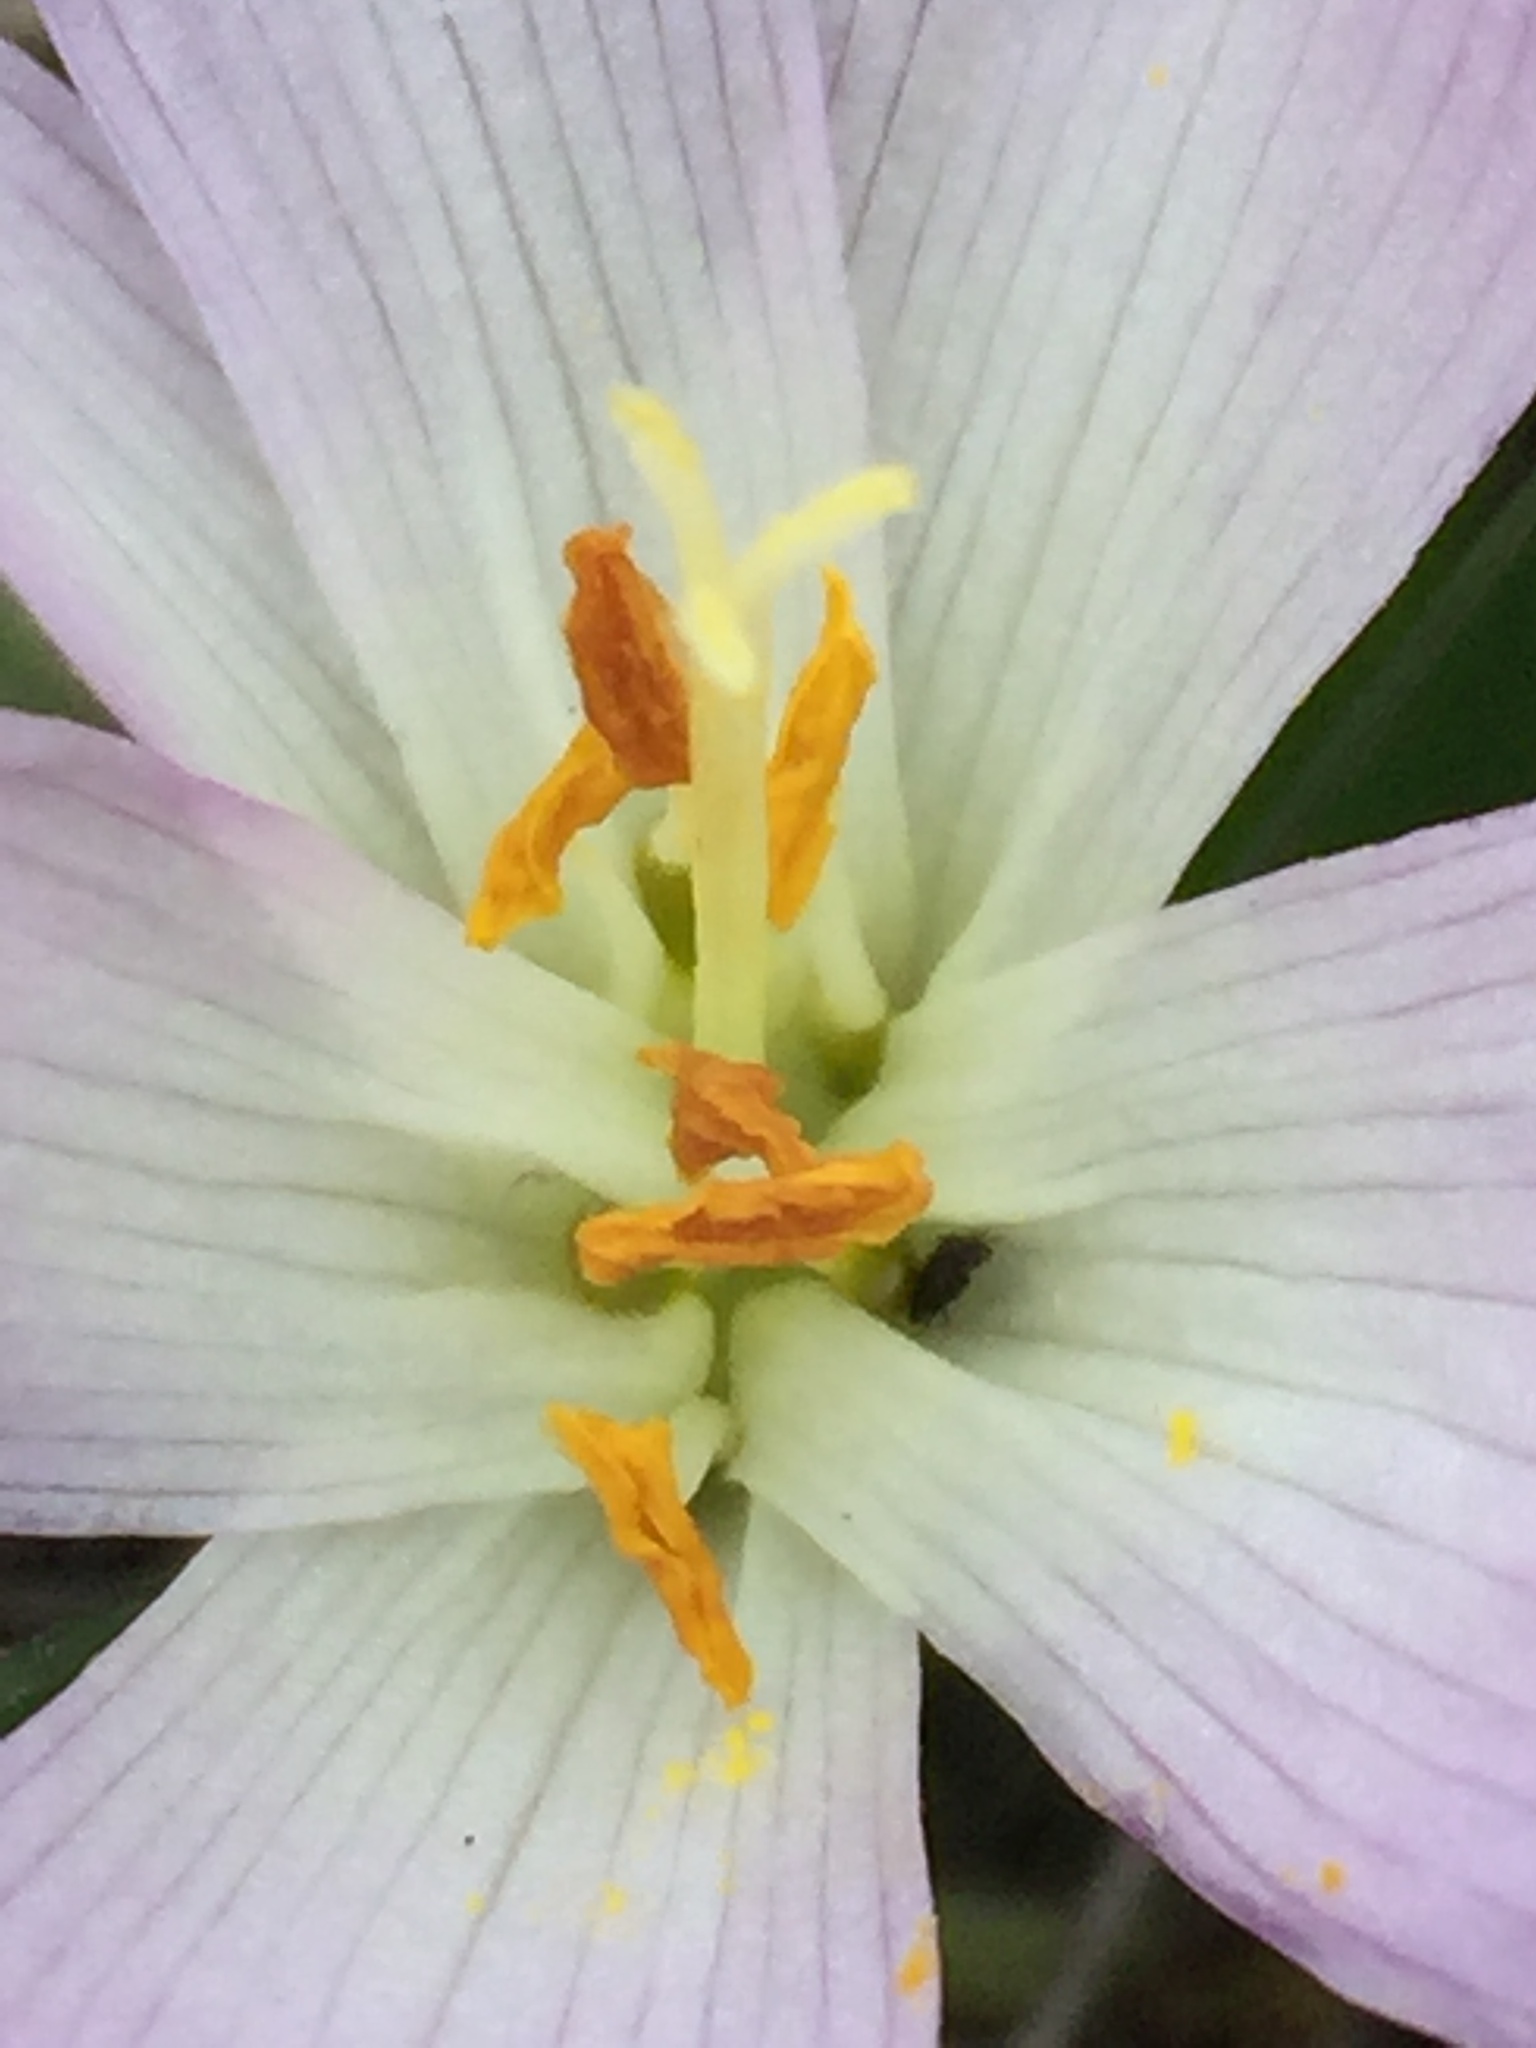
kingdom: Plantae
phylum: Tracheophyta
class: Liliopsida
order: Liliales
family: Colchicaceae
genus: Colchicum
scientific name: Colchicum bulbocodium
